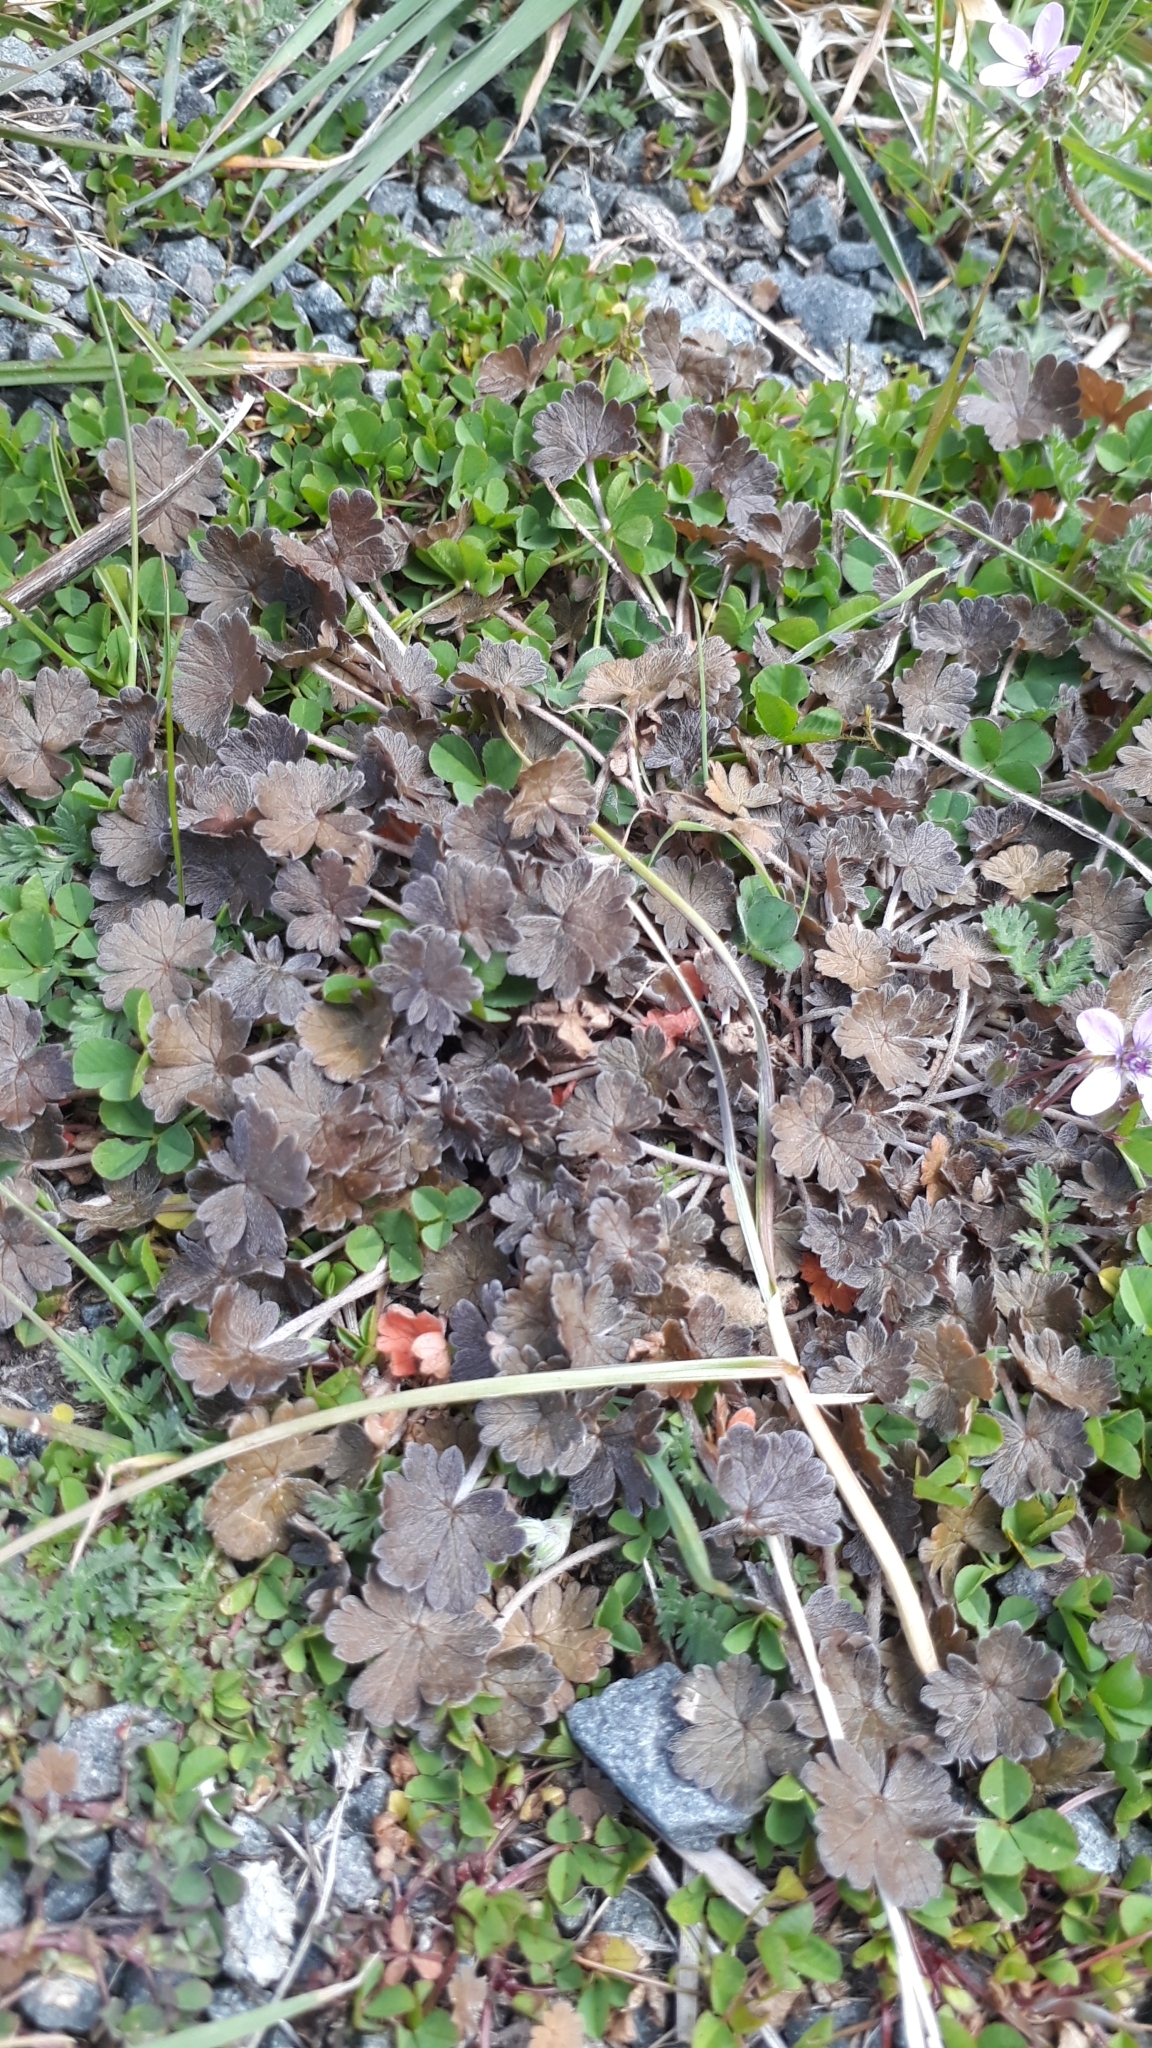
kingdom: Plantae
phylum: Tracheophyta
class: Magnoliopsida
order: Geraniales
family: Geraniaceae
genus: Geranium
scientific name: Geranium brevicaule
